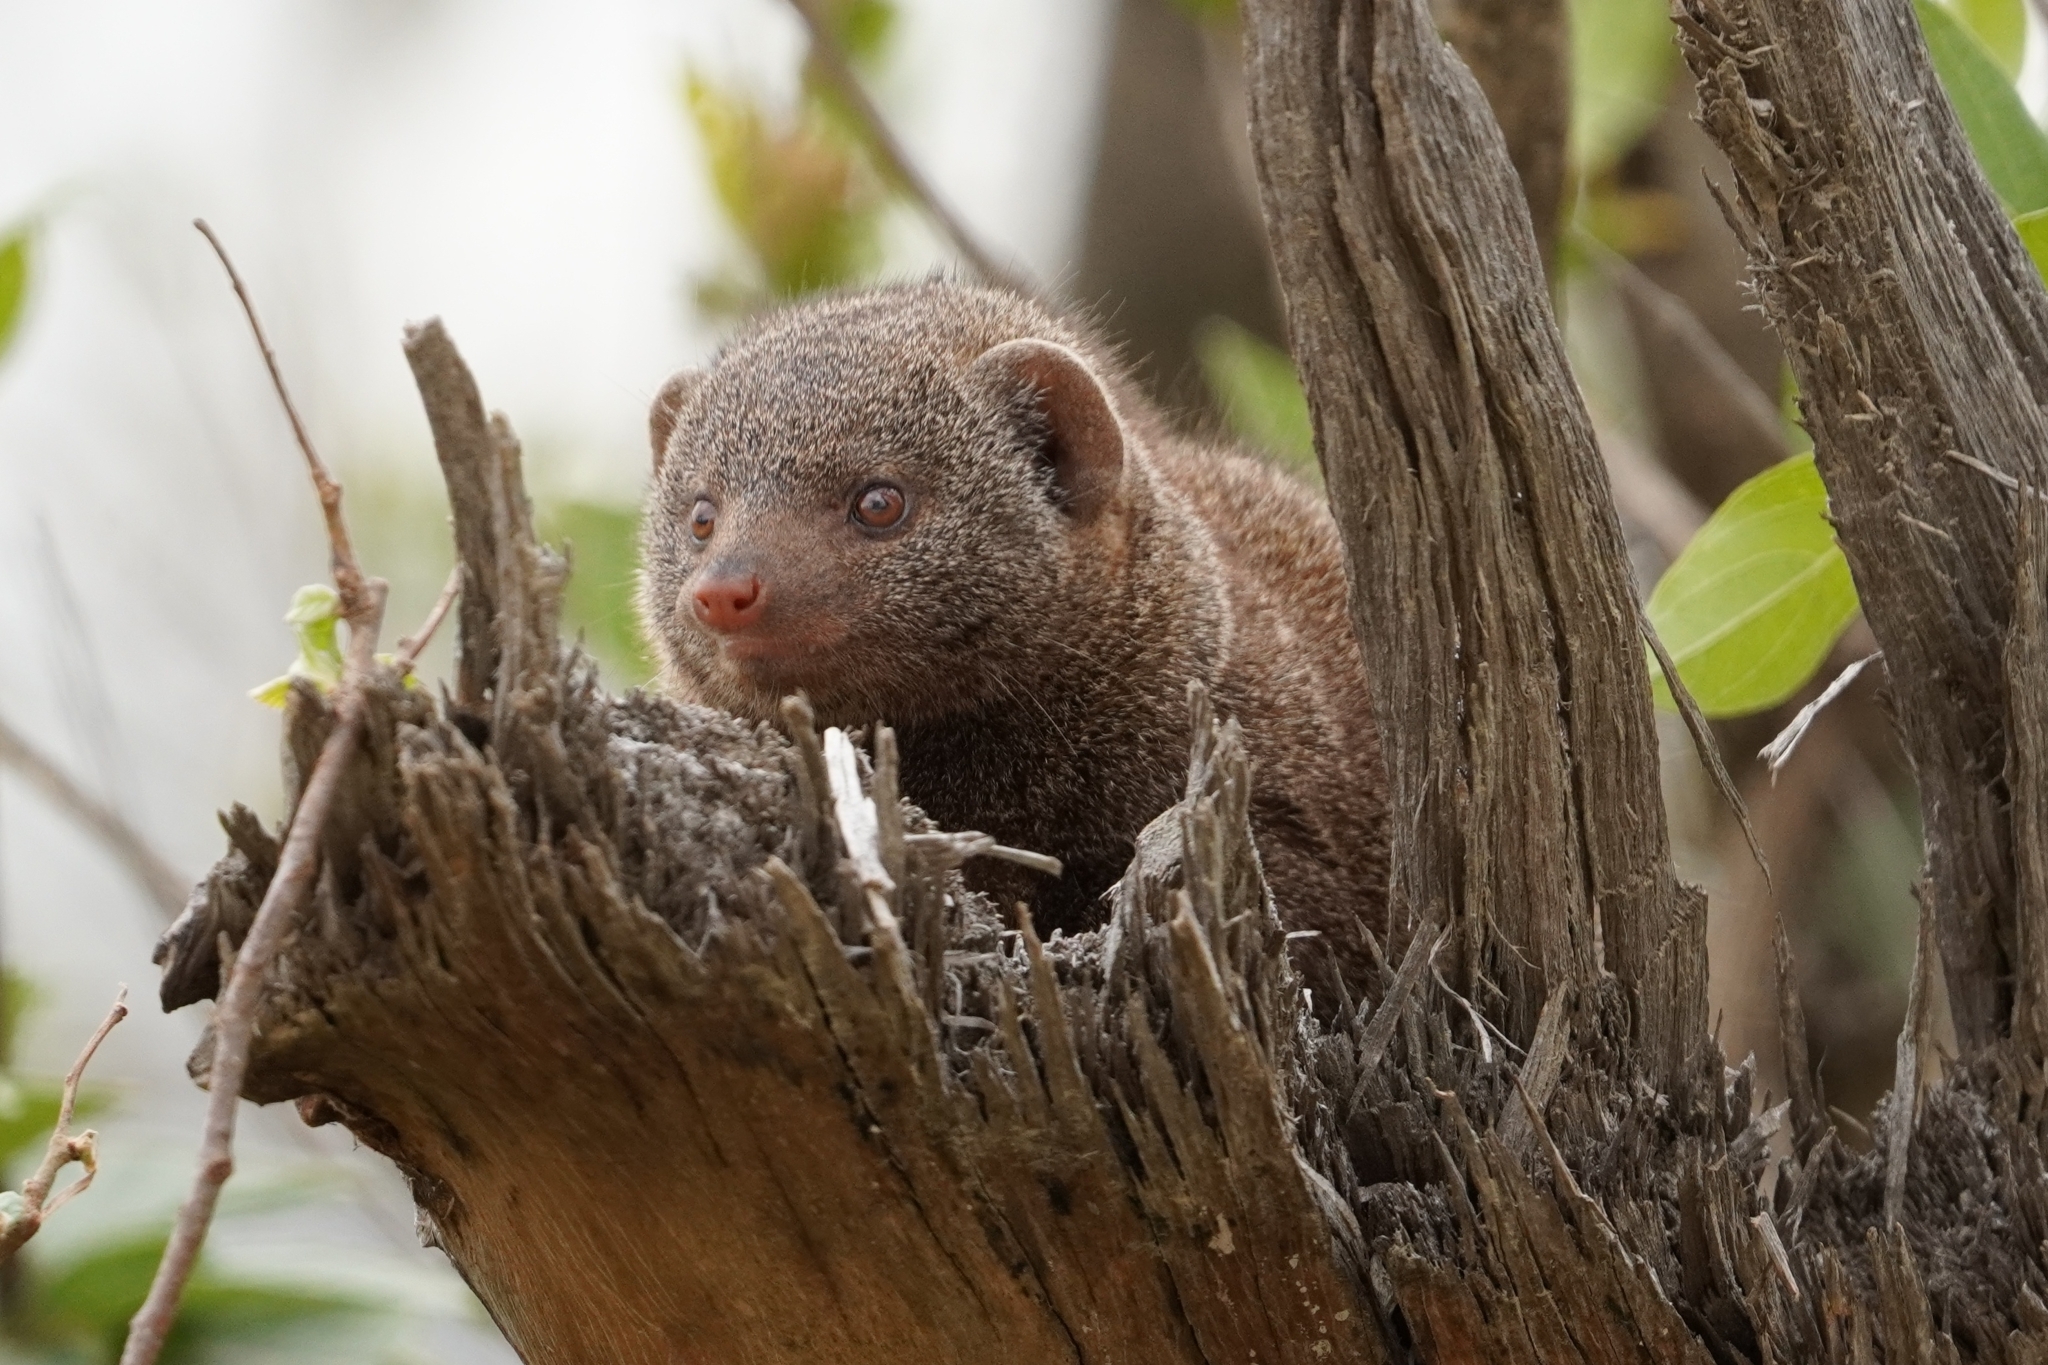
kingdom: Animalia
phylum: Chordata
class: Mammalia
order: Carnivora
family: Herpestidae
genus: Helogale
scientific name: Helogale parvula
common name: Common dwarf mongoose
